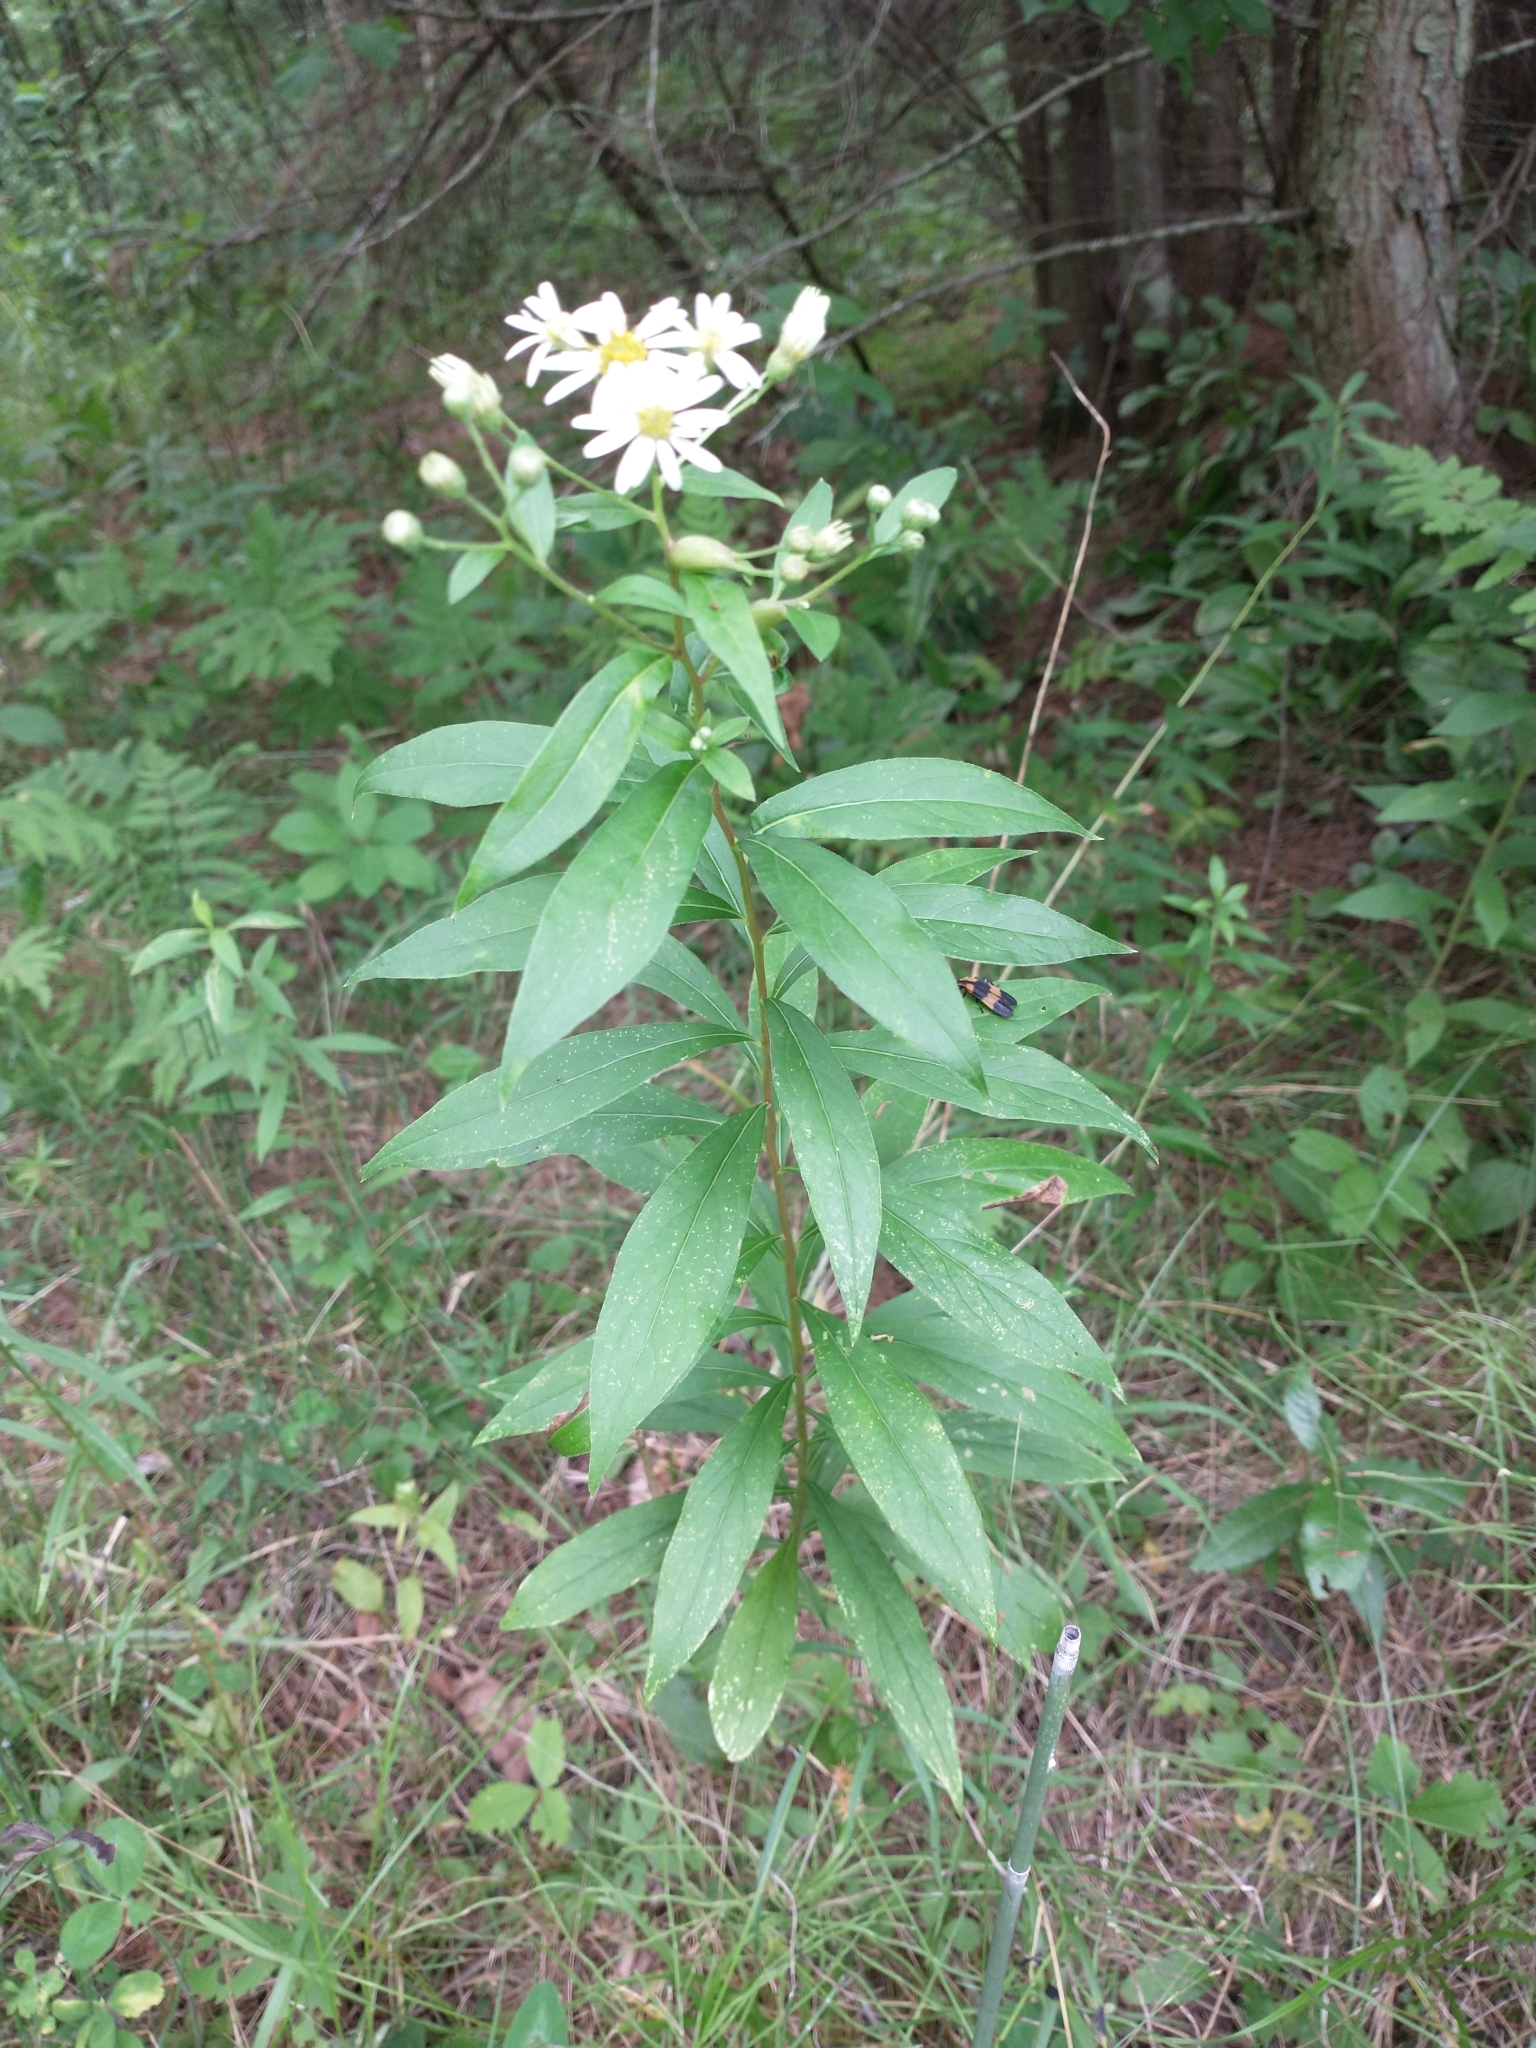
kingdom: Plantae
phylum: Tracheophyta
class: Magnoliopsida
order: Asterales
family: Asteraceae
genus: Doellingeria
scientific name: Doellingeria umbellata
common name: Flat-top white aster
